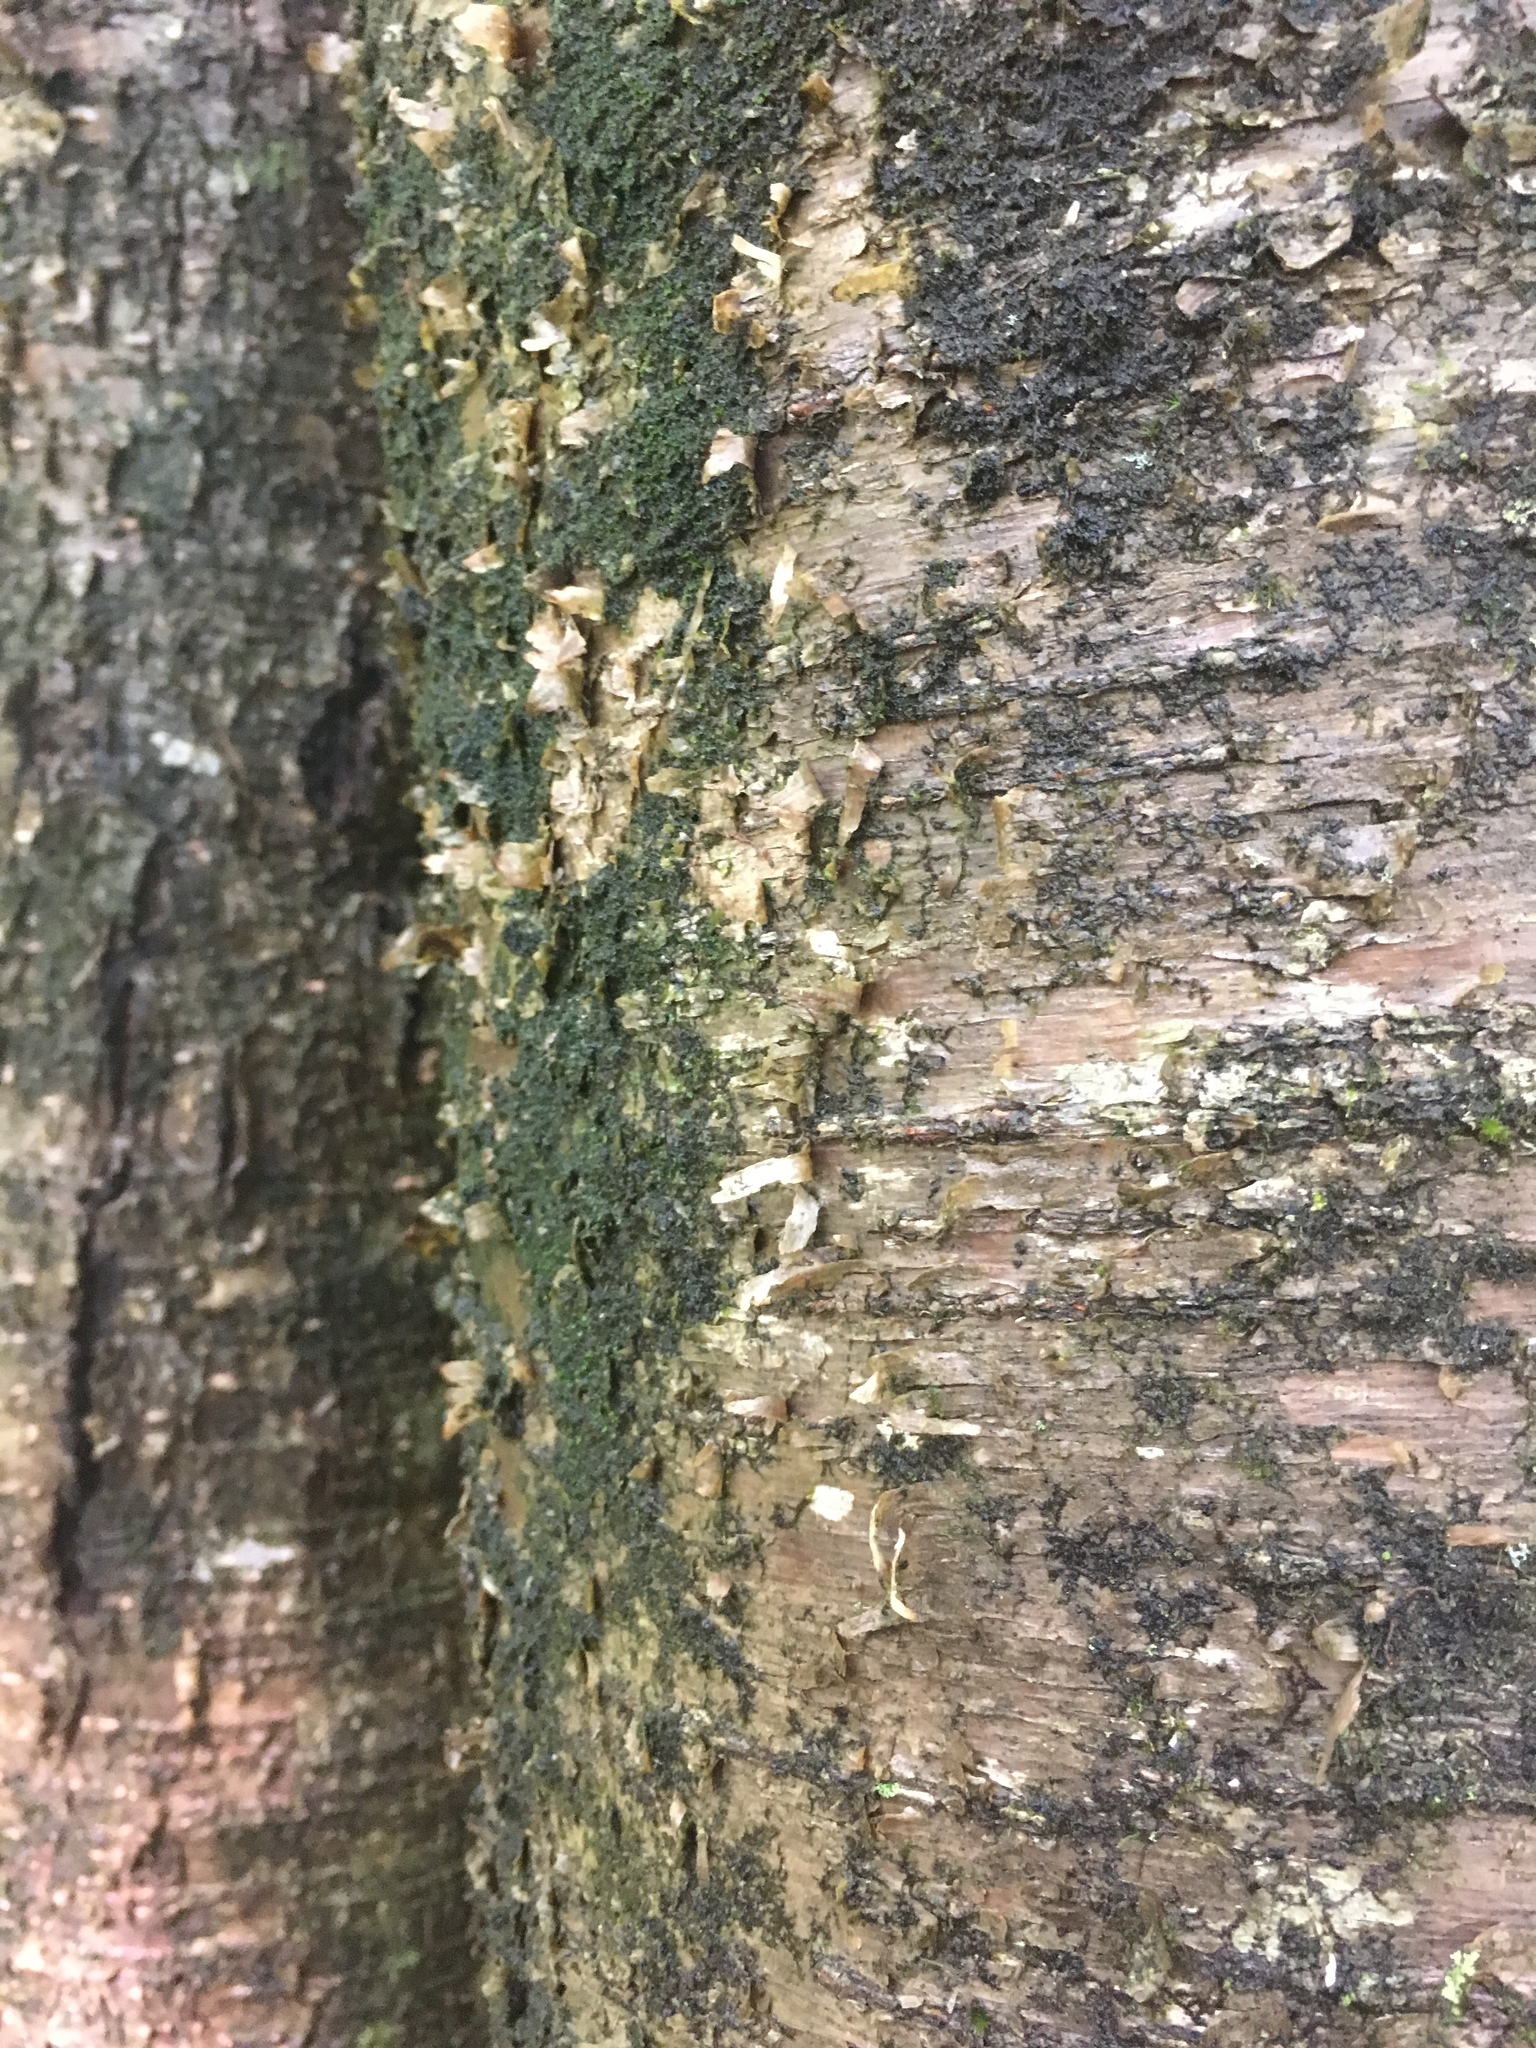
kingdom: Plantae
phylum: Tracheophyta
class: Magnoliopsida
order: Fagales
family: Betulaceae
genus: Betula
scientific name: Betula alleghaniensis
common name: Yellow birch
